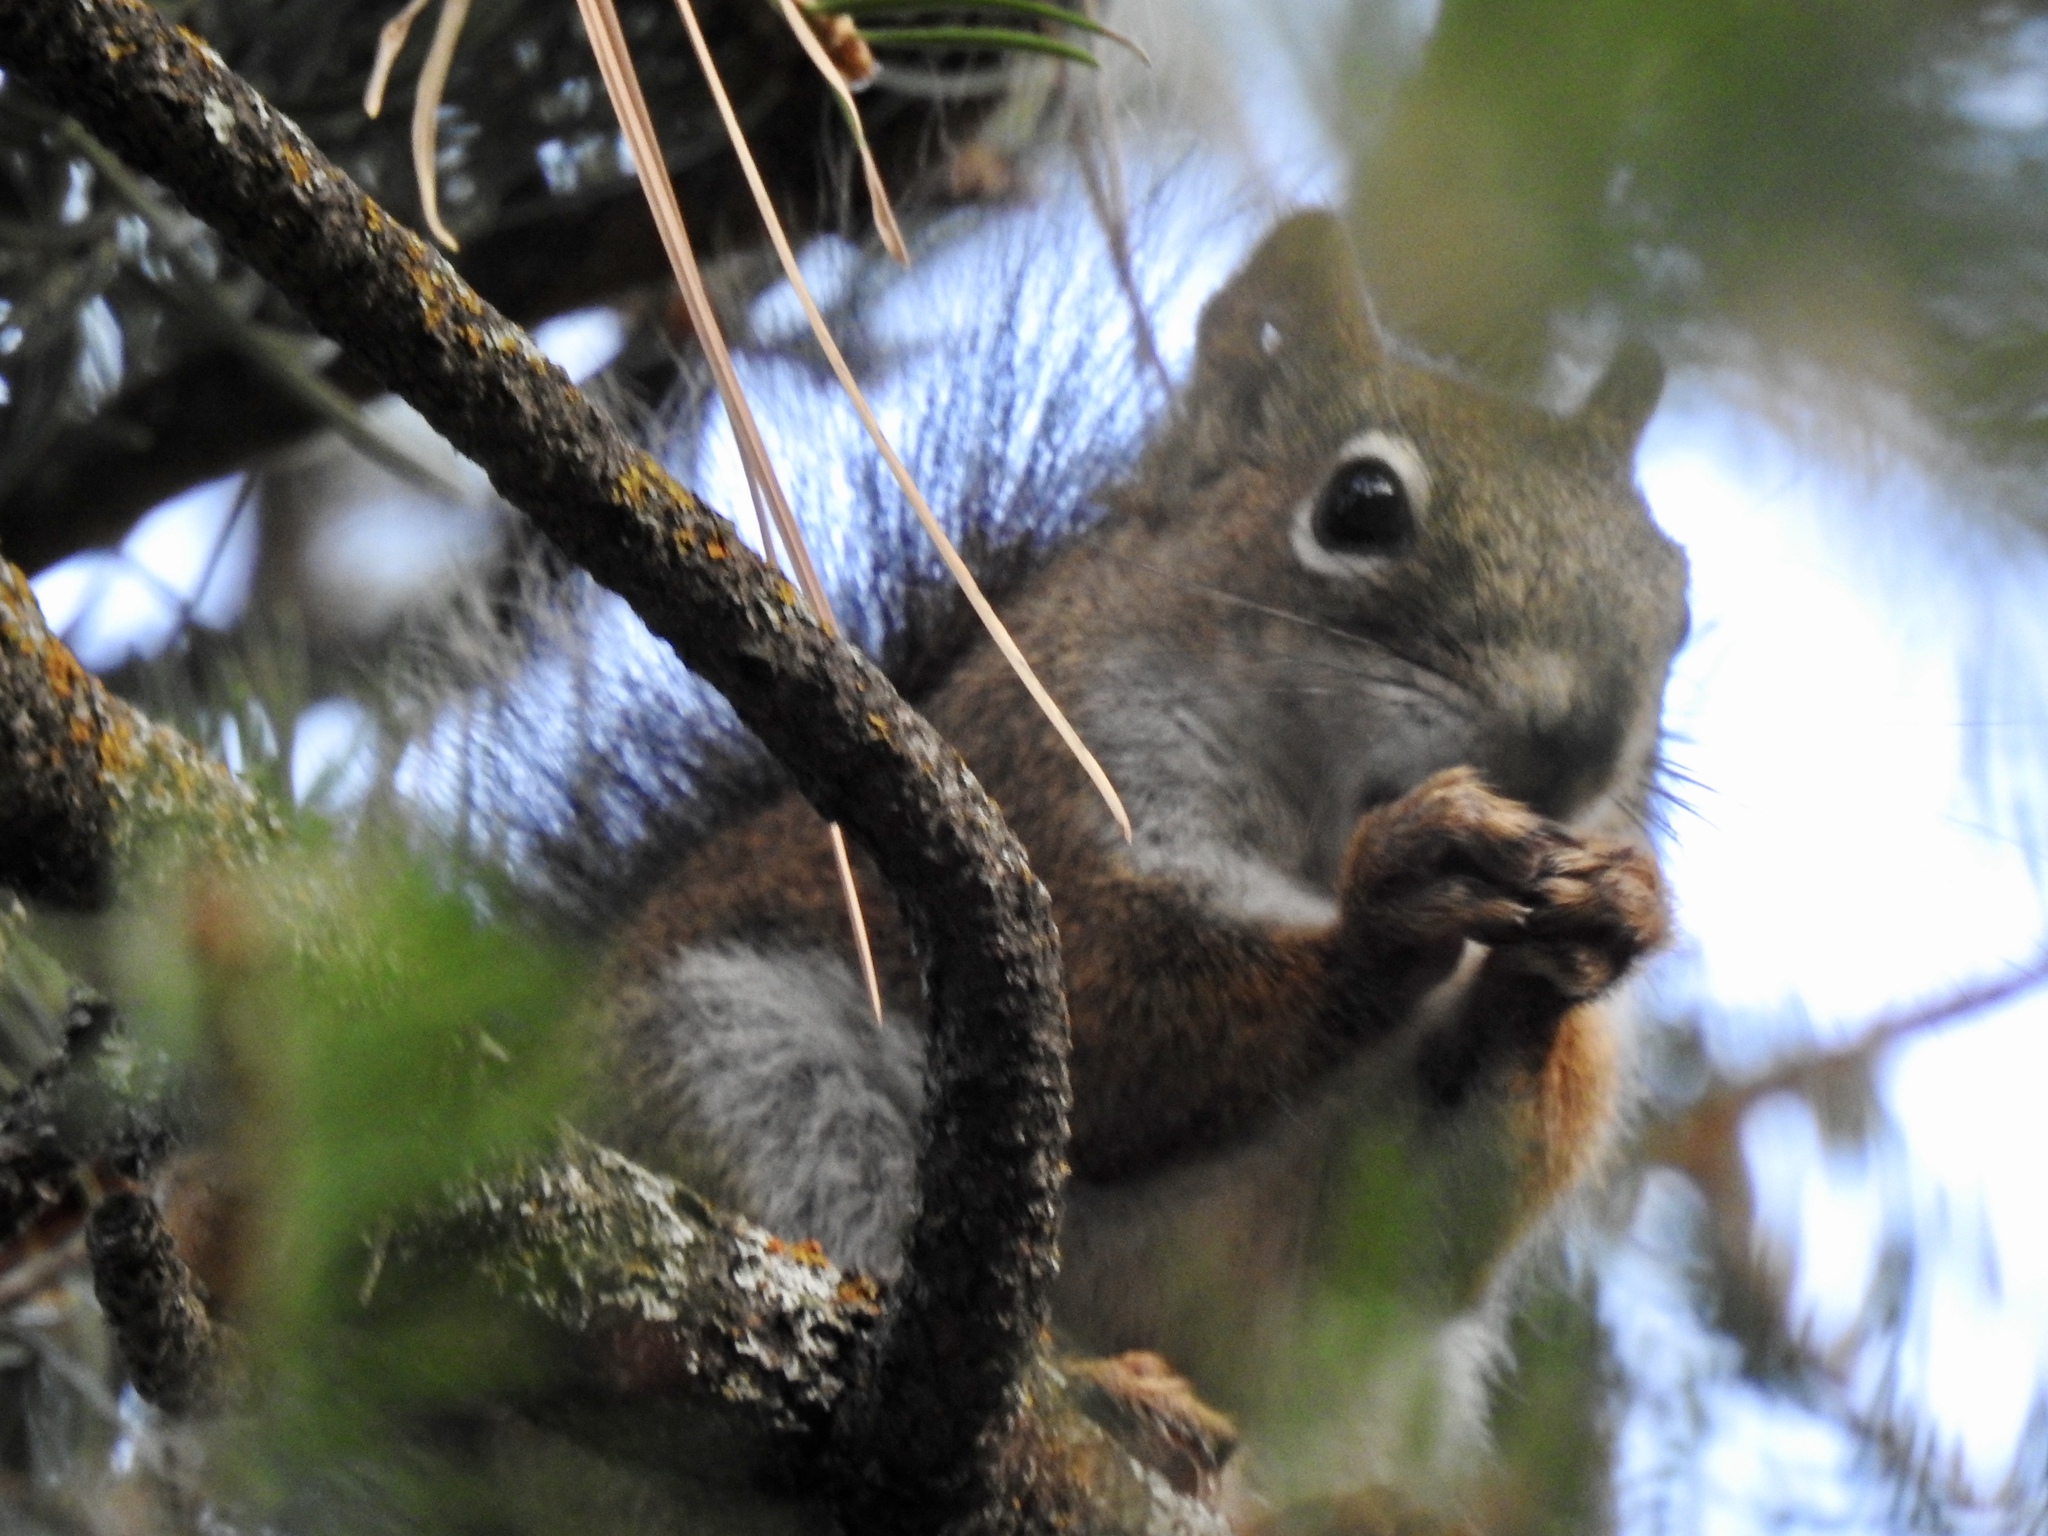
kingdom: Animalia
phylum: Chordata
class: Mammalia
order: Rodentia
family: Sciuridae
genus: Tamiasciurus
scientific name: Tamiasciurus hudsonicus
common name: Red squirrel
